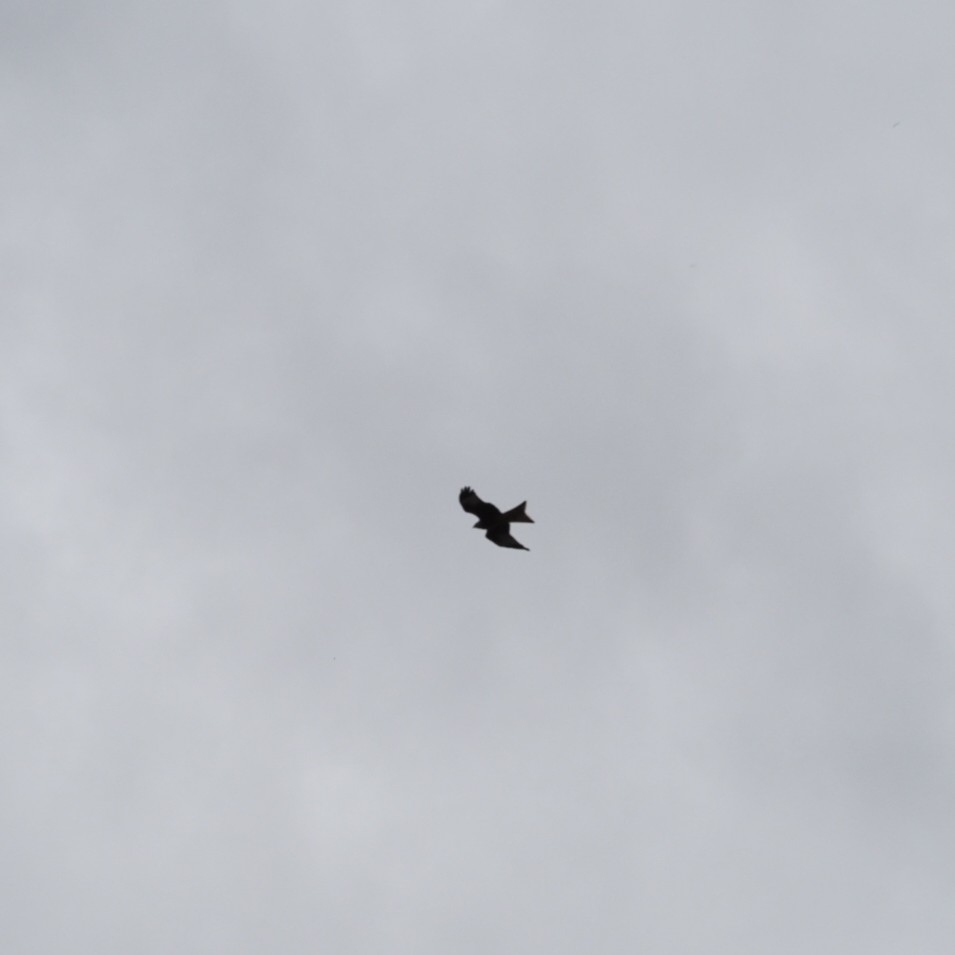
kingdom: Animalia
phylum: Chordata
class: Aves
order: Accipitriformes
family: Accipitridae
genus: Milvus
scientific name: Milvus milvus
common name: Red kite
